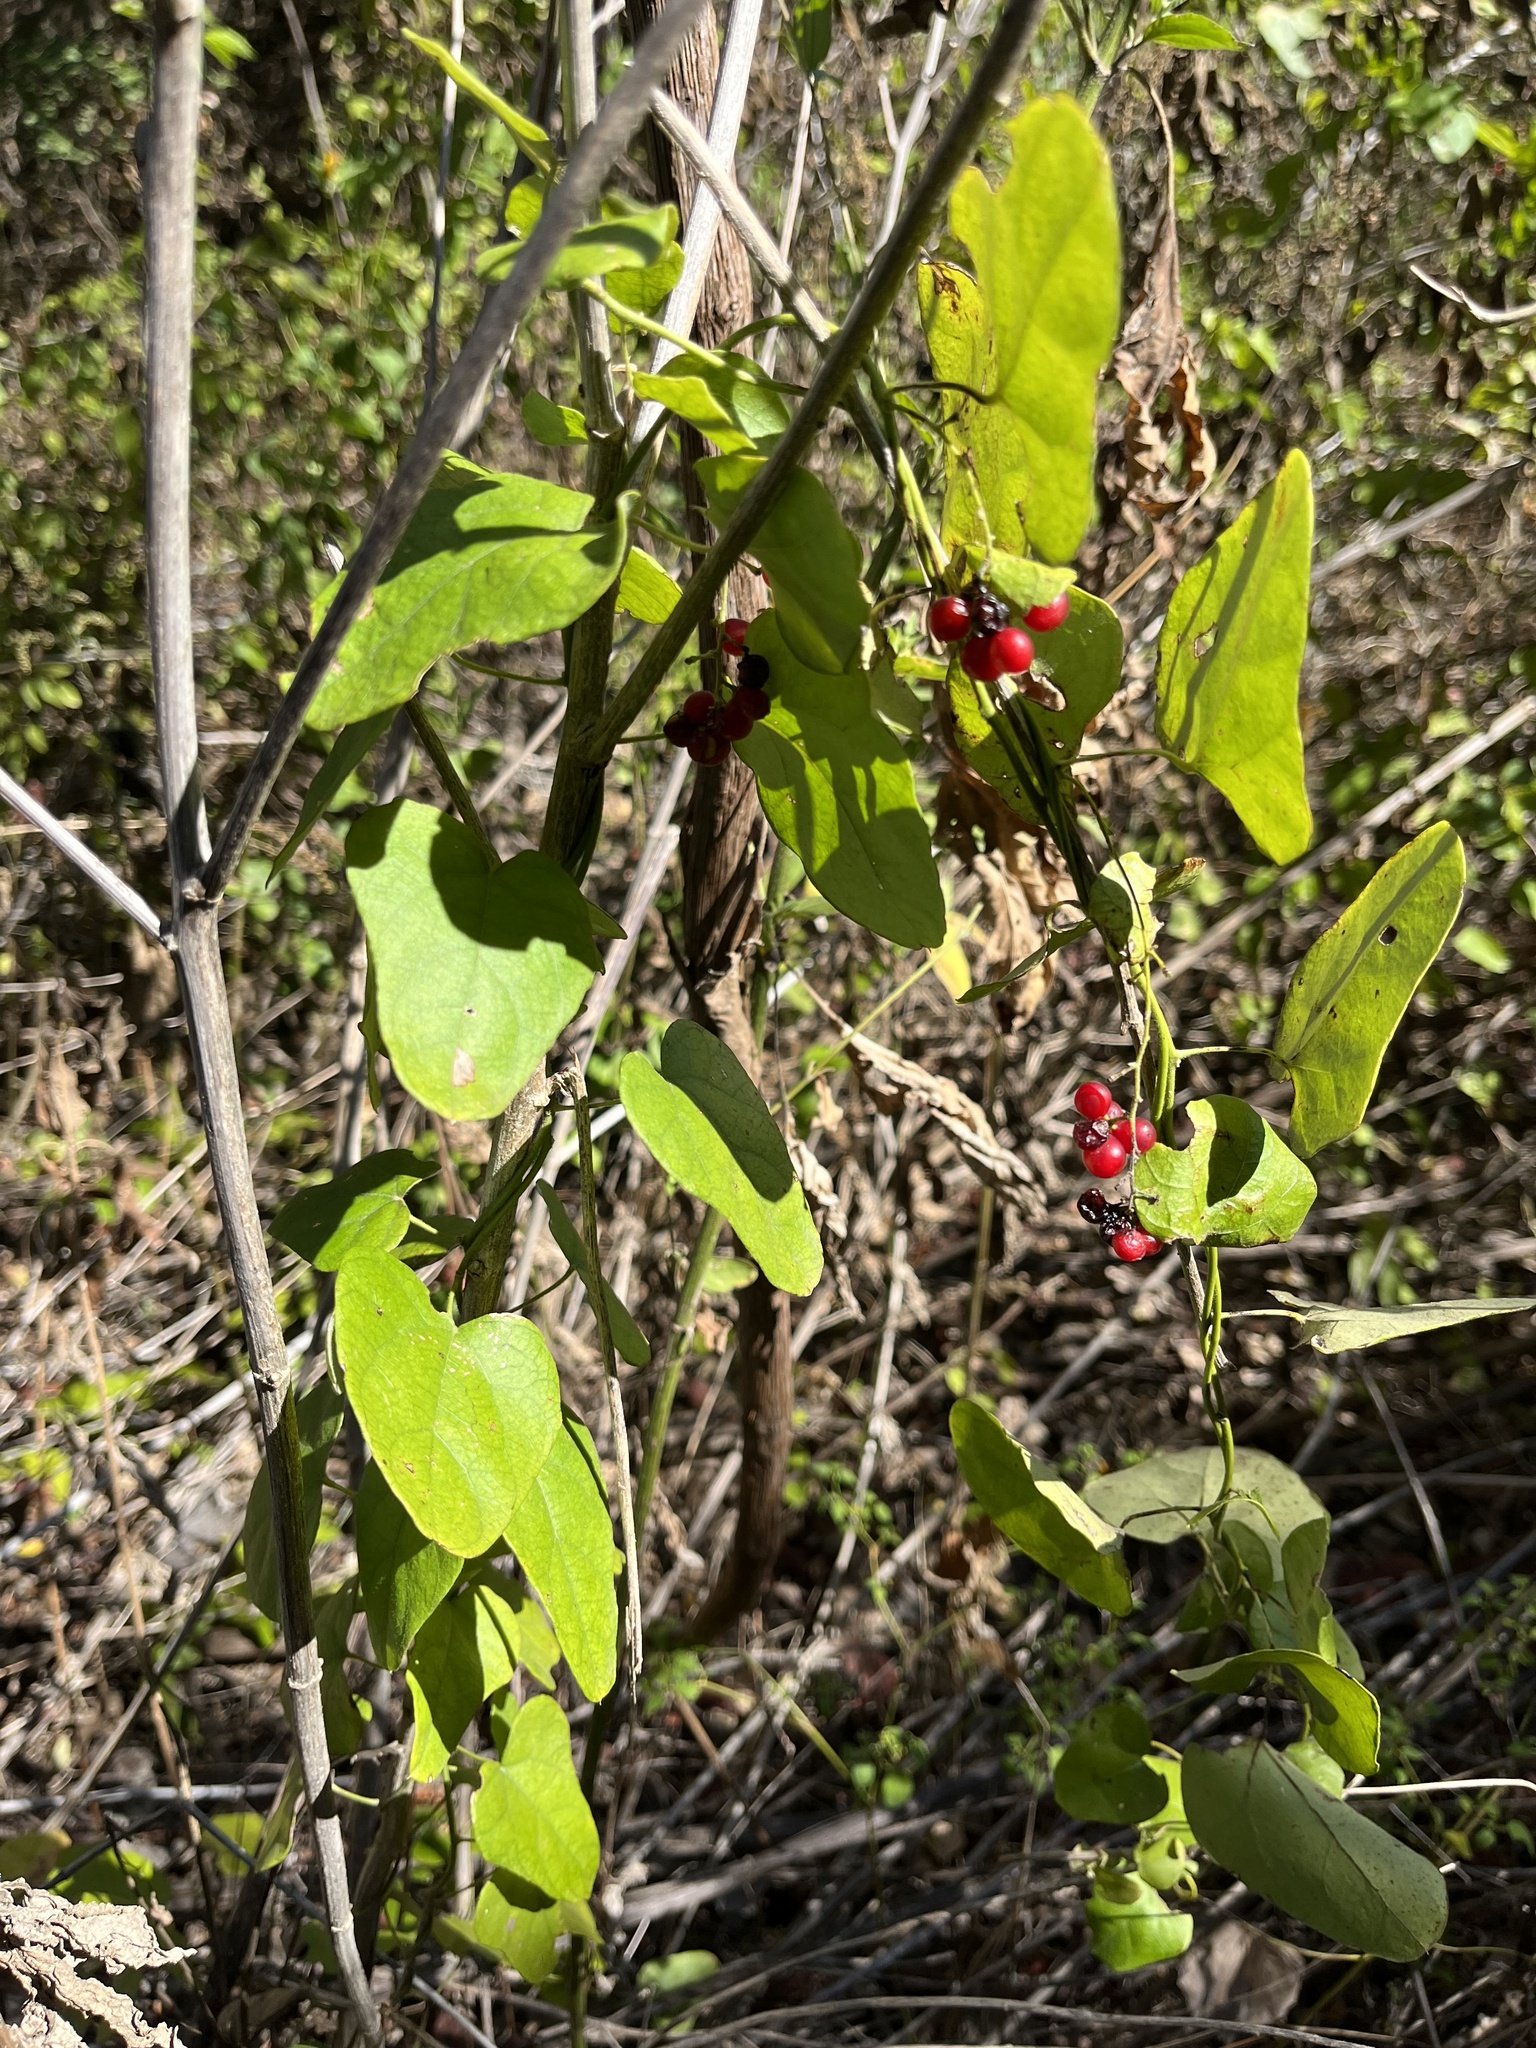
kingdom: Plantae
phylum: Tracheophyta
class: Magnoliopsida
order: Ranunculales
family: Menispermaceae
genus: Cocculus
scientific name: Cocculus carolinus
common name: Carolina moonseed
